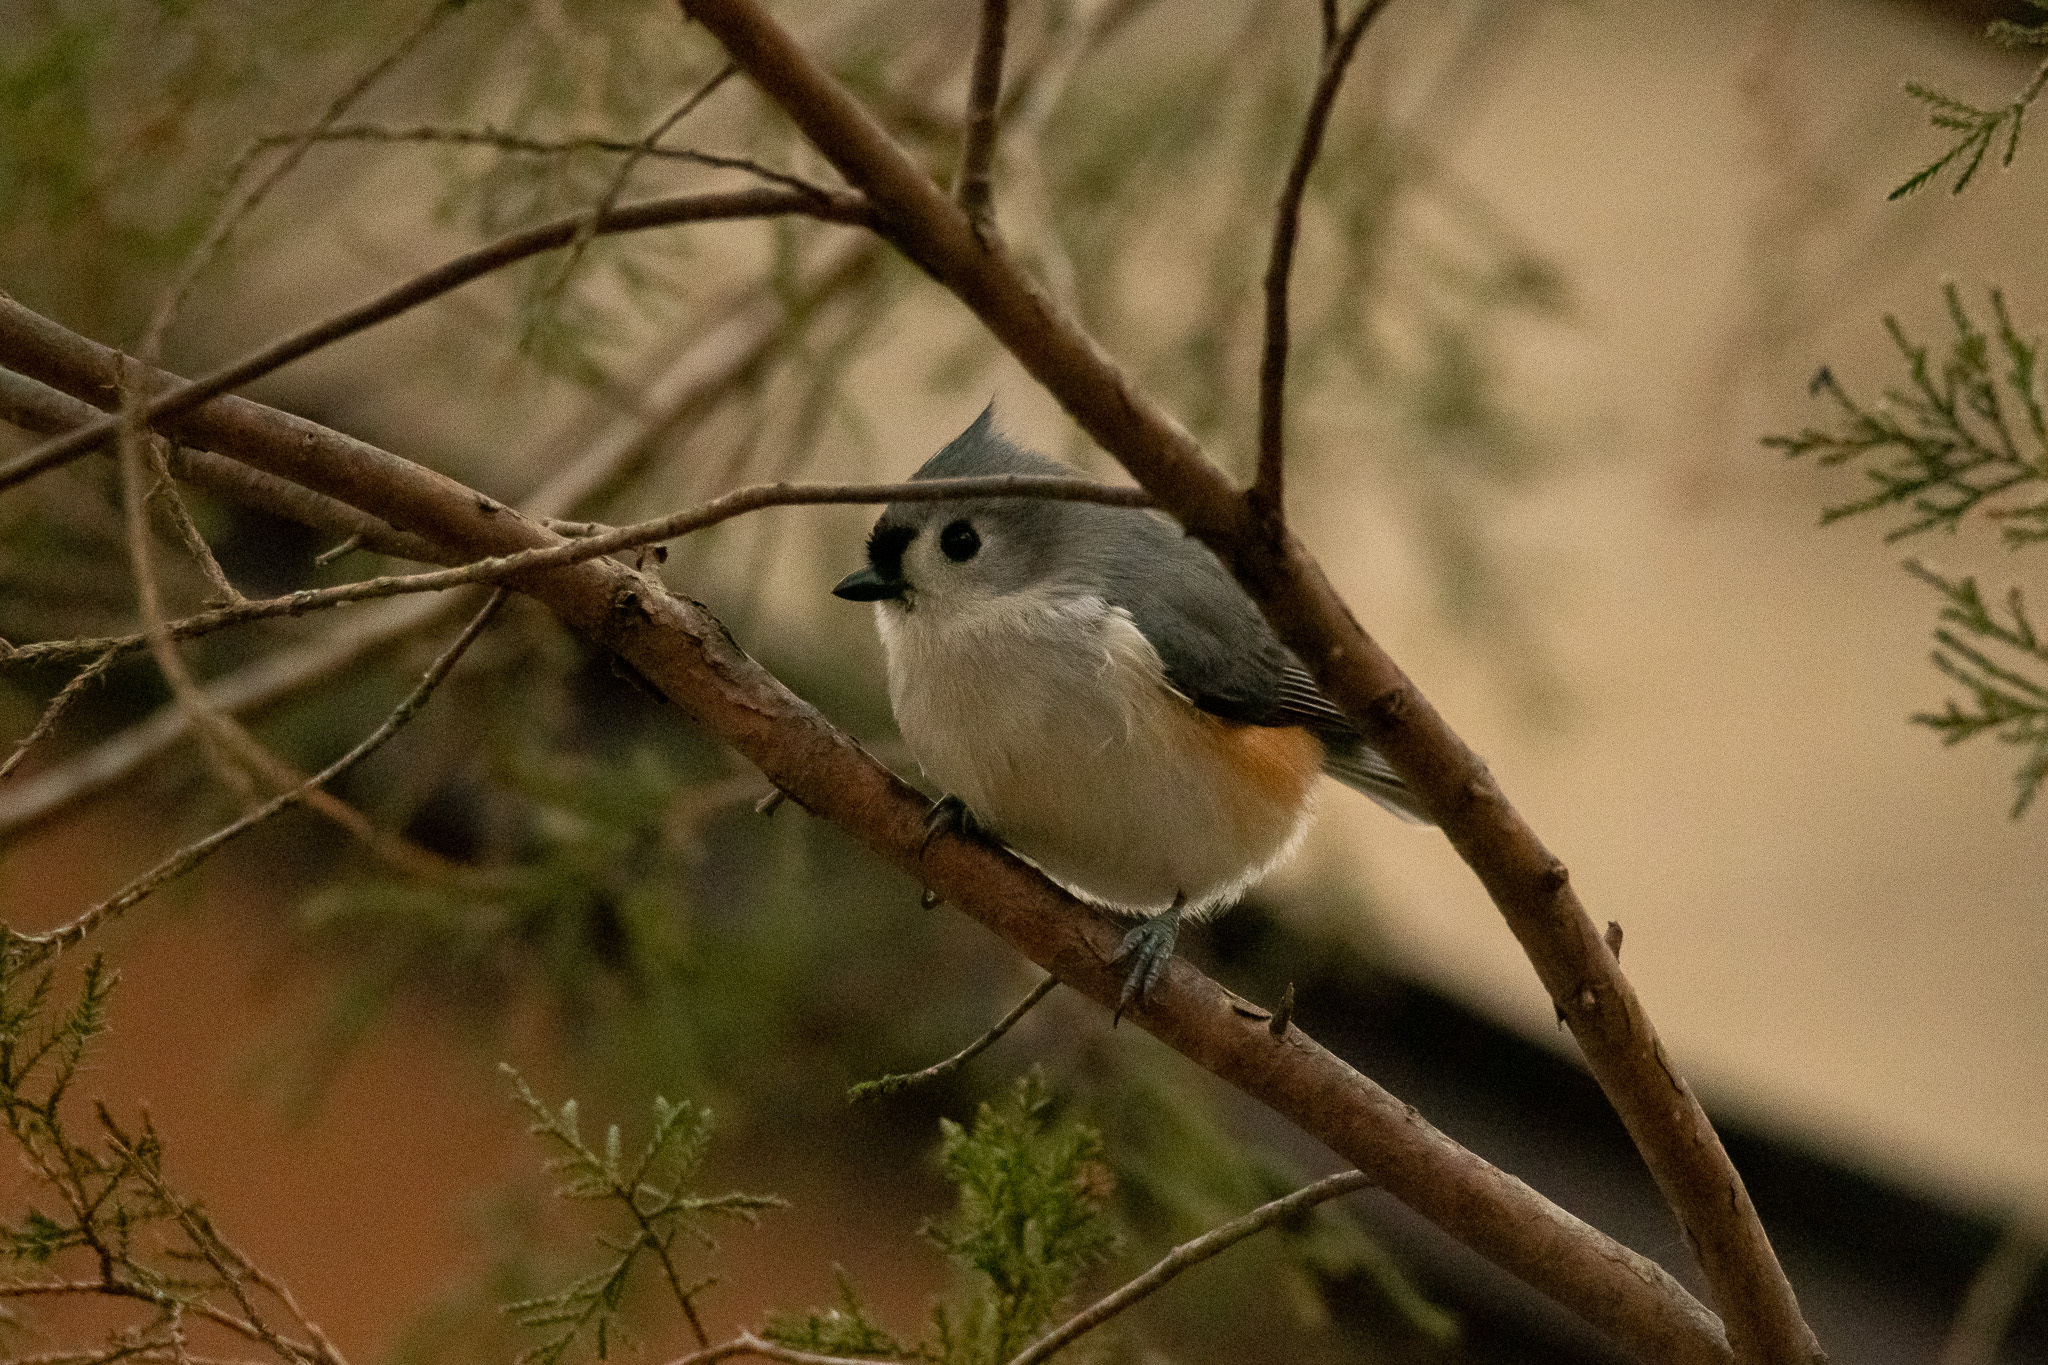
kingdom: Animalia
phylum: Chordata
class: Aves
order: Passeriformes
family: Paridae
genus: Baeolophus
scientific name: Baeolophus bicolor
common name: Tufted titmouse
